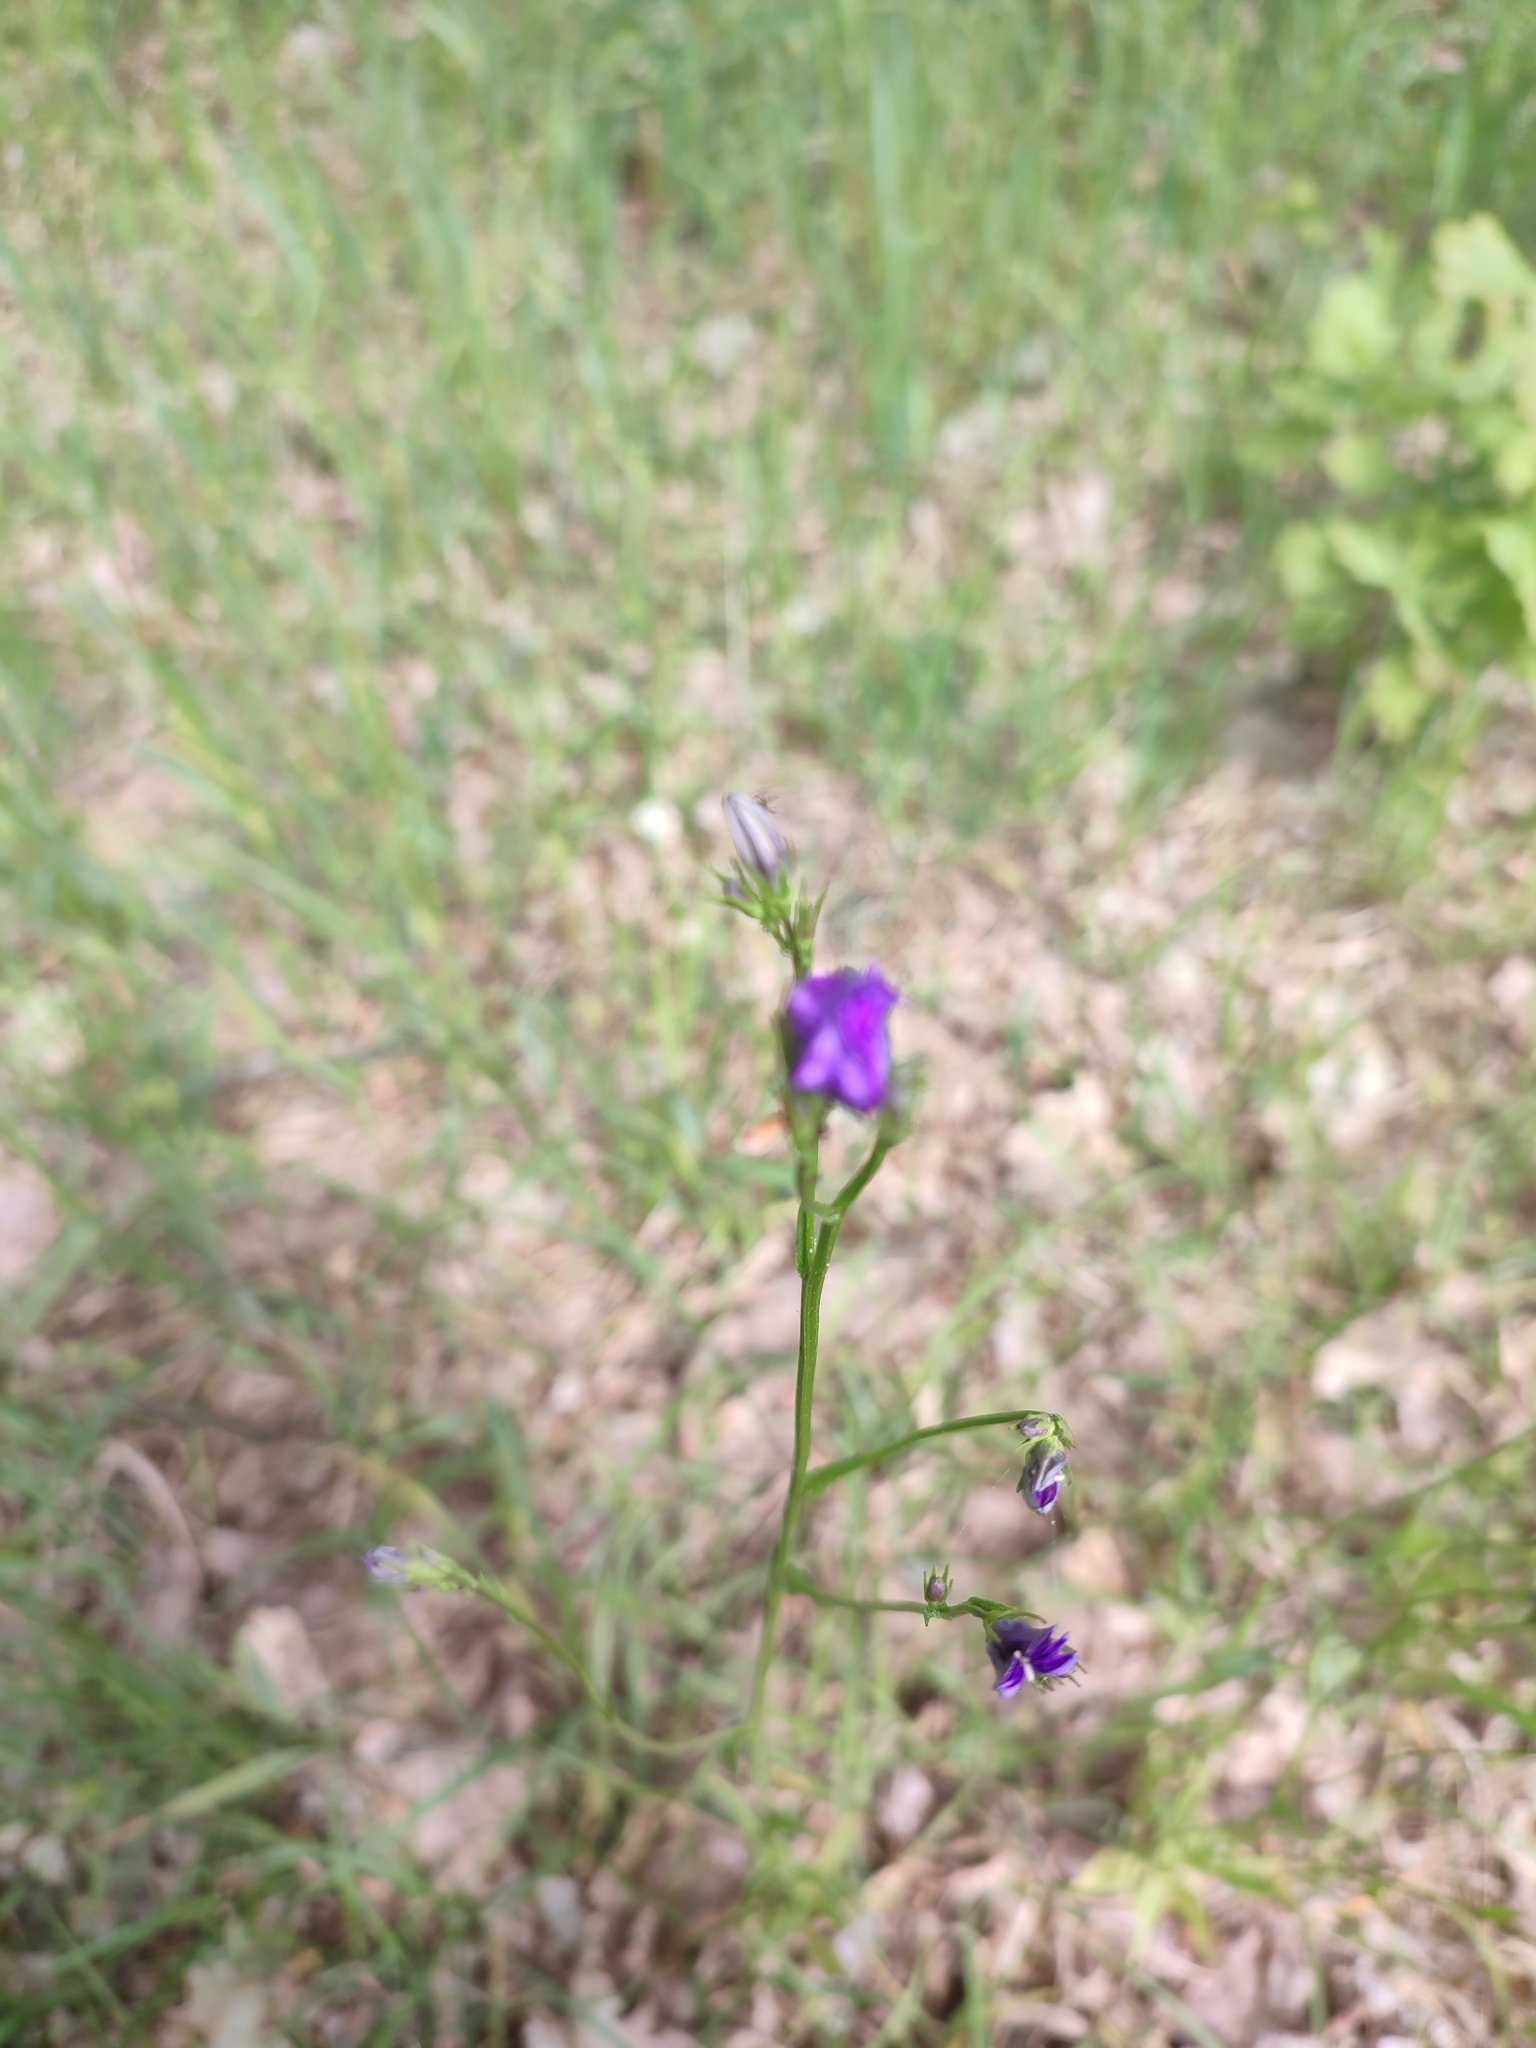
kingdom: Plantae
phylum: Tracheophyta
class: Magnoliopsida
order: Asterales
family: Campanulaceae
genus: Campanula
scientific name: Campanula patula
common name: Spreading bellflower
